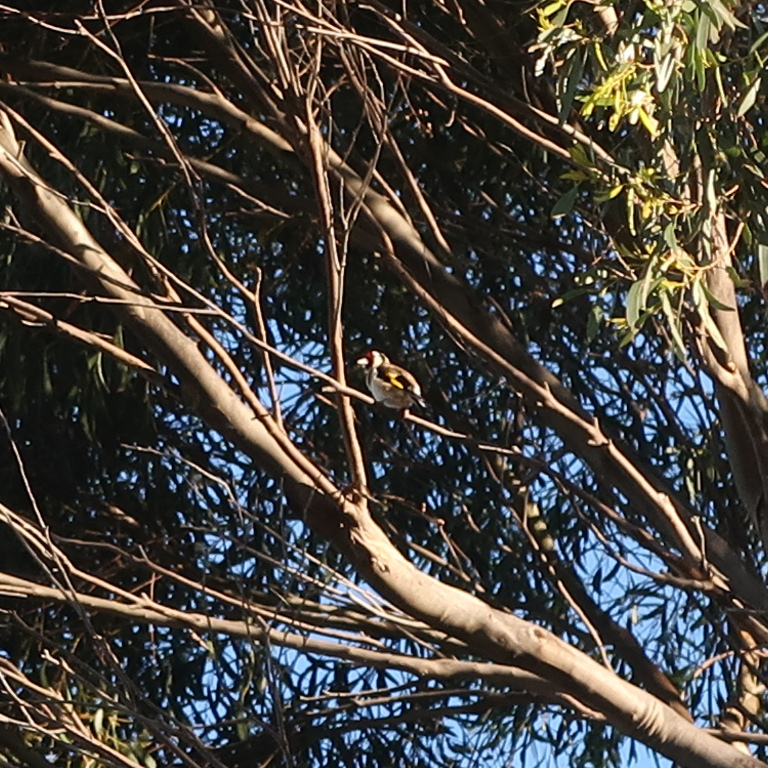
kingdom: Animalia
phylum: Chordata
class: Aves
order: Passeriformes
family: Fringillidae
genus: Carduelis
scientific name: Carduelis carduelis
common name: European goldfinch
